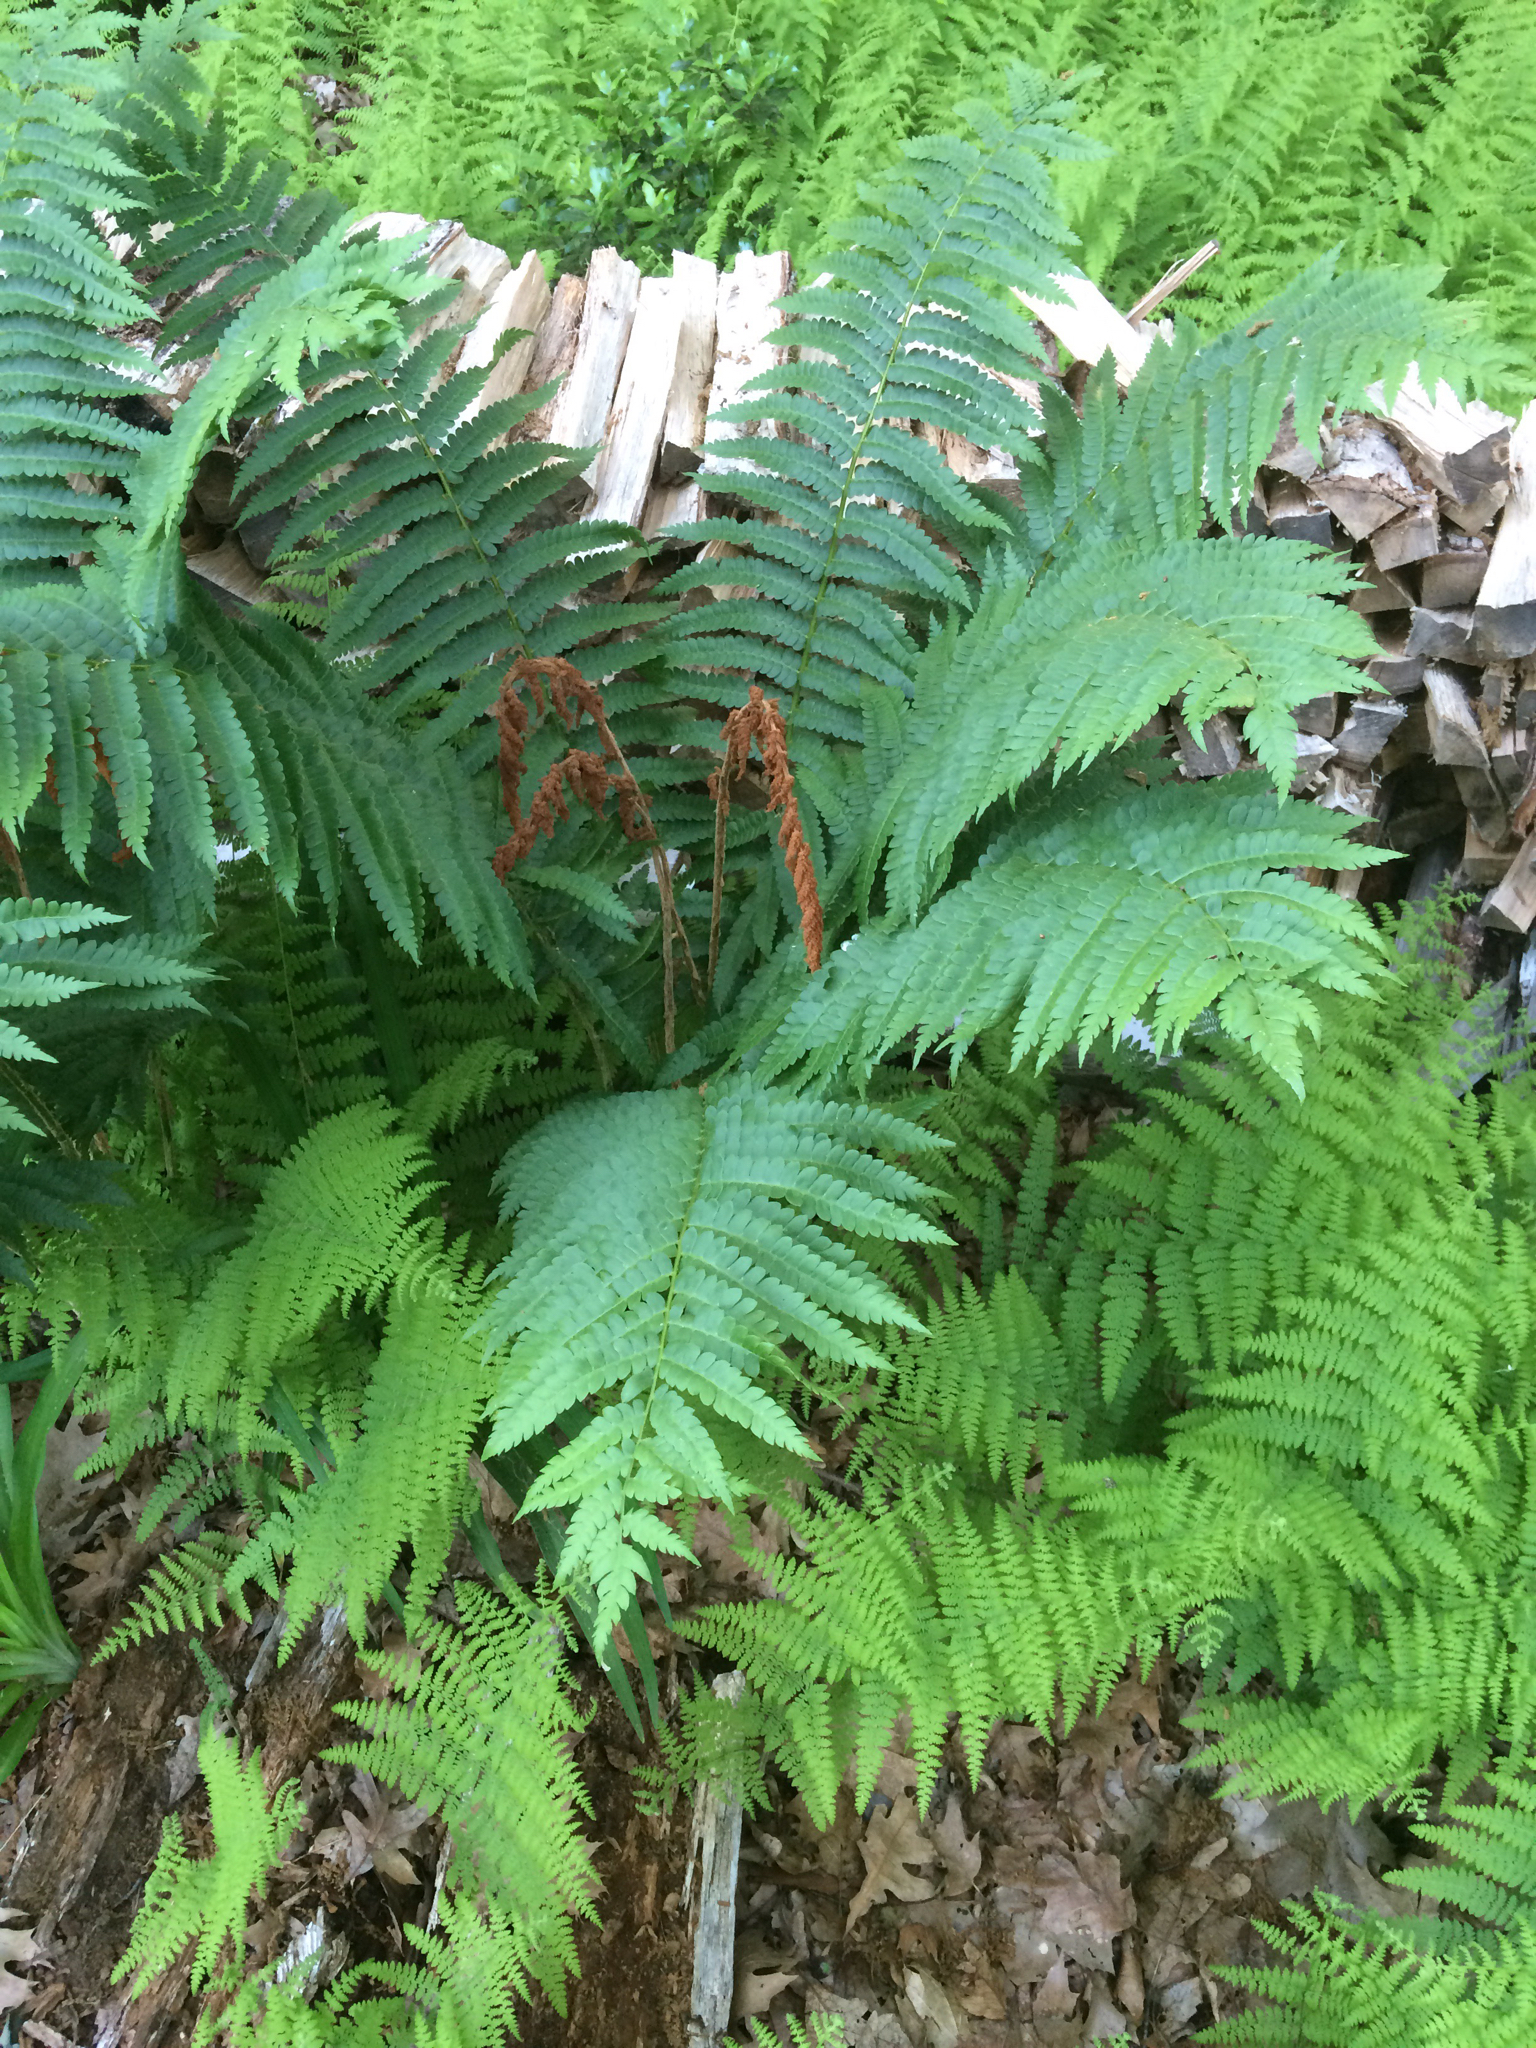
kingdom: Plantae
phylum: Tracheophyta
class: Polypodiopsida
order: Osmundales
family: Osmundaceae
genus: Osmundastrum
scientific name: Osmundastrum cinnamomeum
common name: Cinnamon fern
